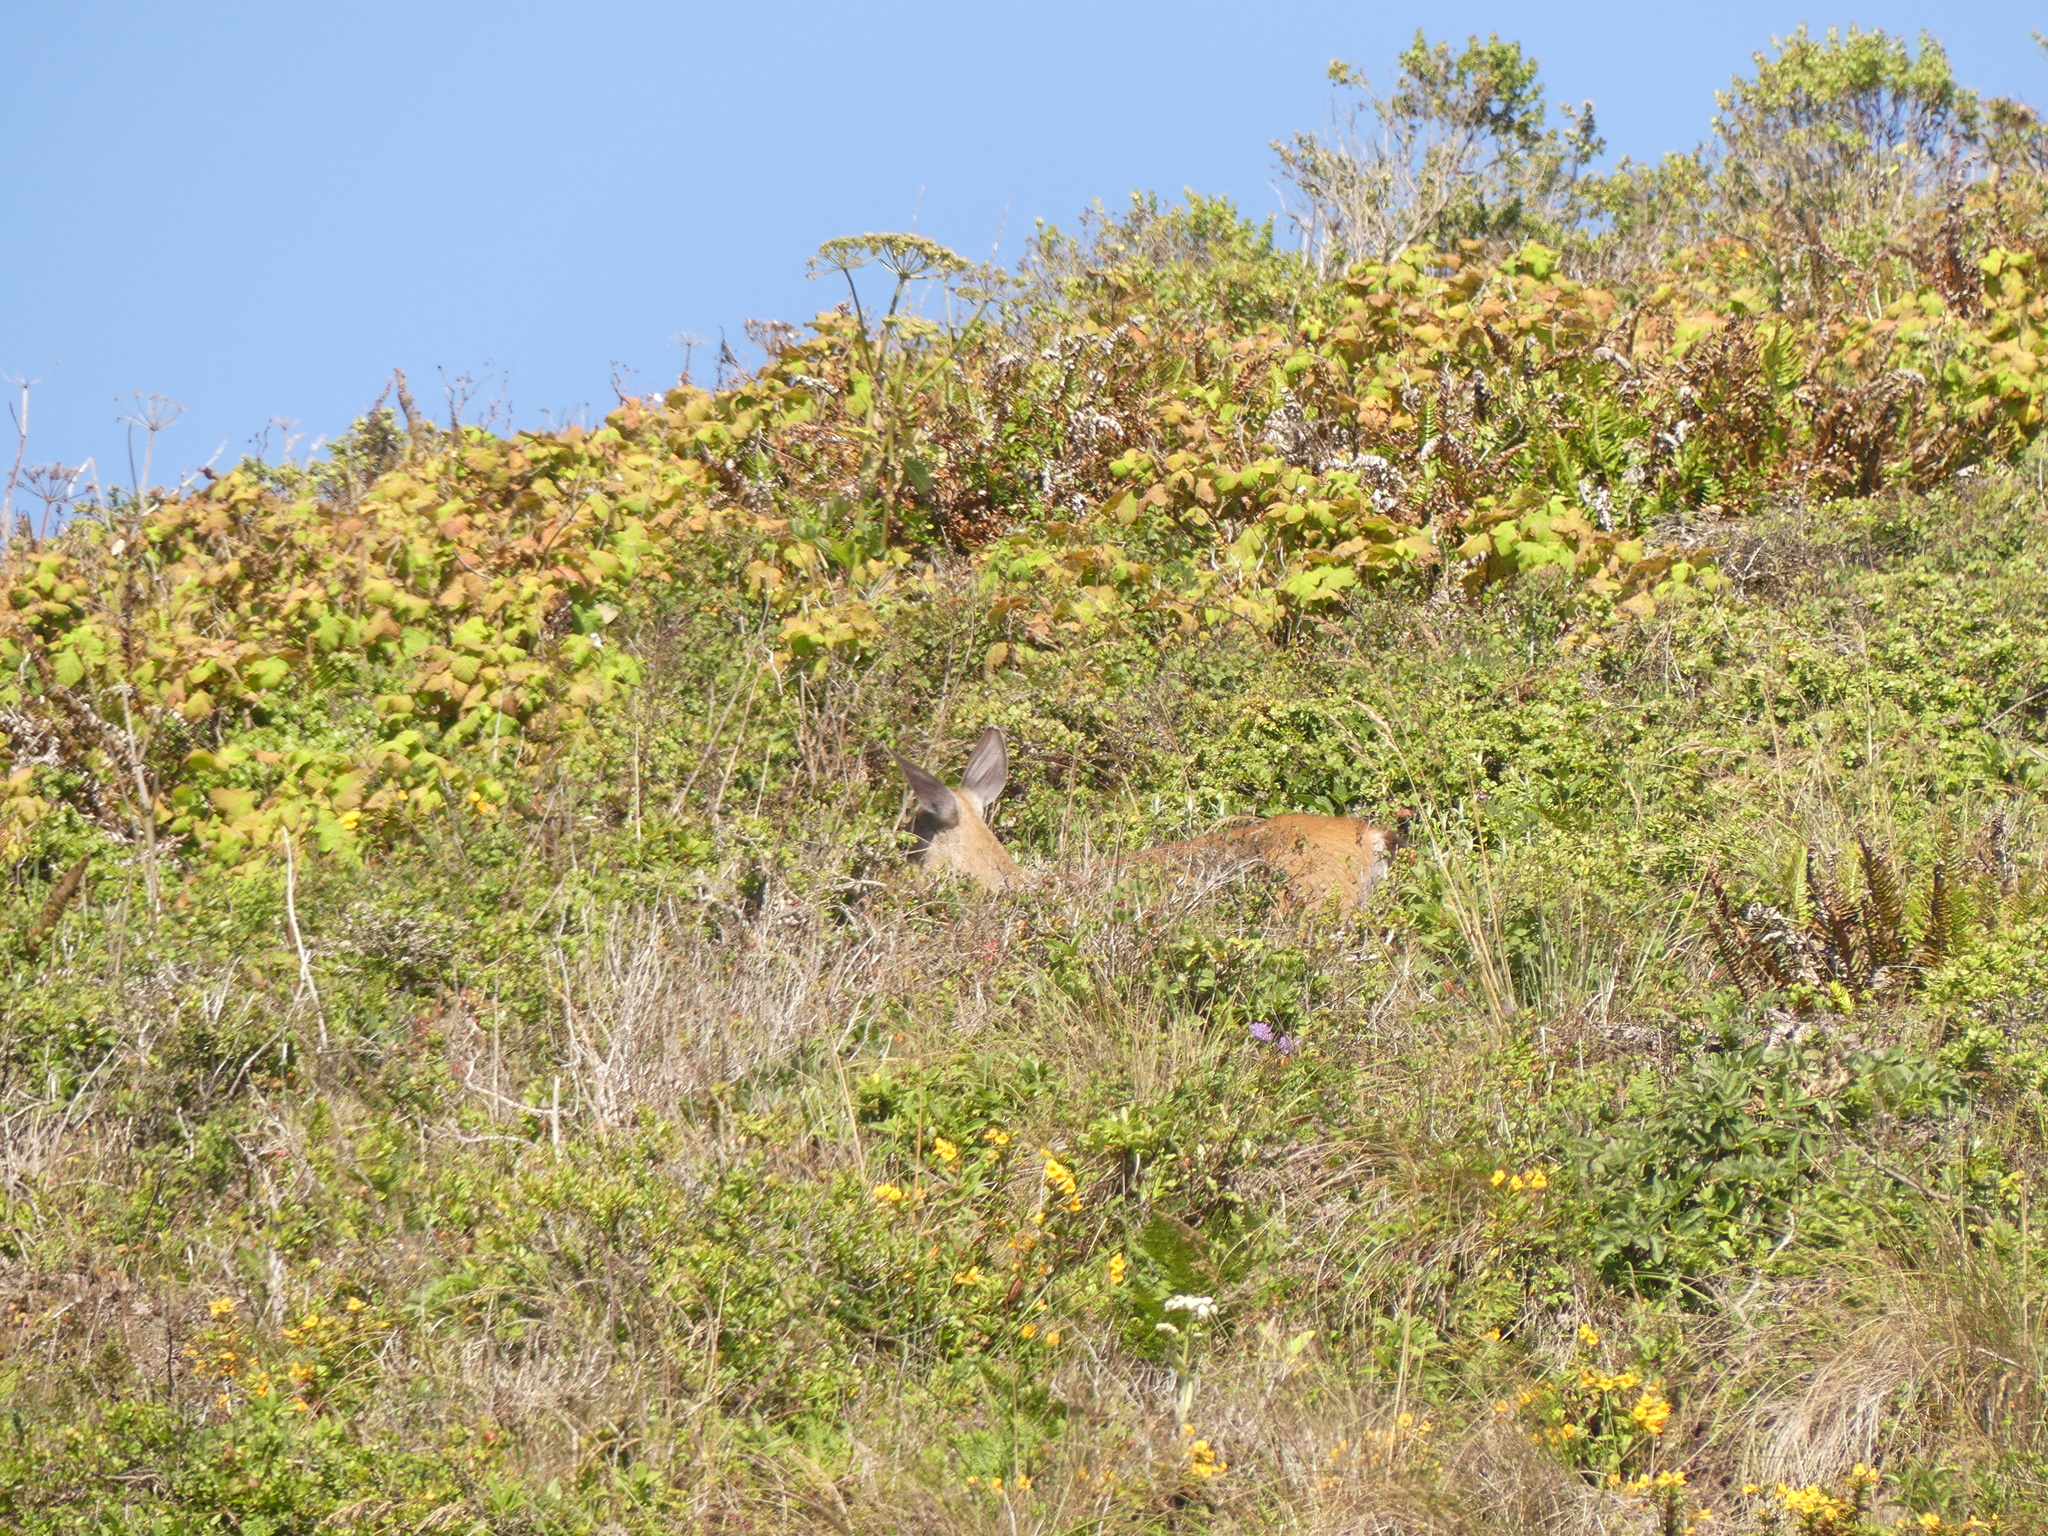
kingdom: Animalia
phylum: Chordata
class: Mammalia
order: Artiodactyla
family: Cervidae
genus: Odocoileus
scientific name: Odocoileus hemionus
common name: Mule deer
